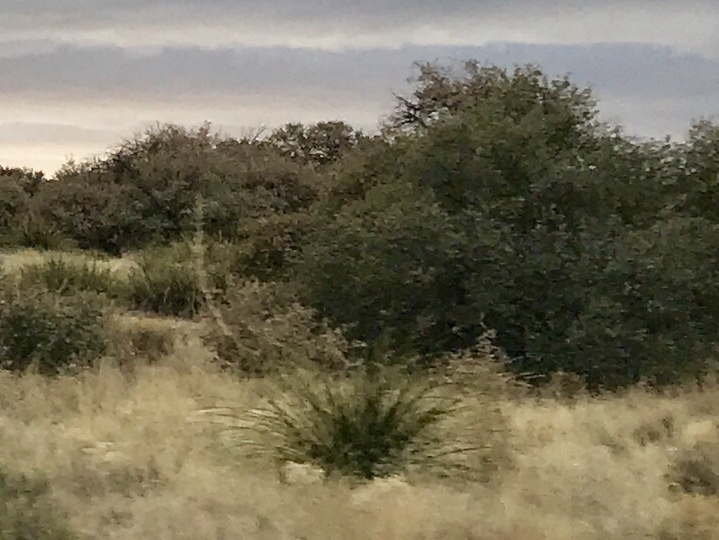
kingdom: Plantae
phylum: Tracheophyta
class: Liliopsida
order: Asparagales
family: Asparagaceae
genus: Nolina
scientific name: Nolina microcarpa
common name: Bear-grass
